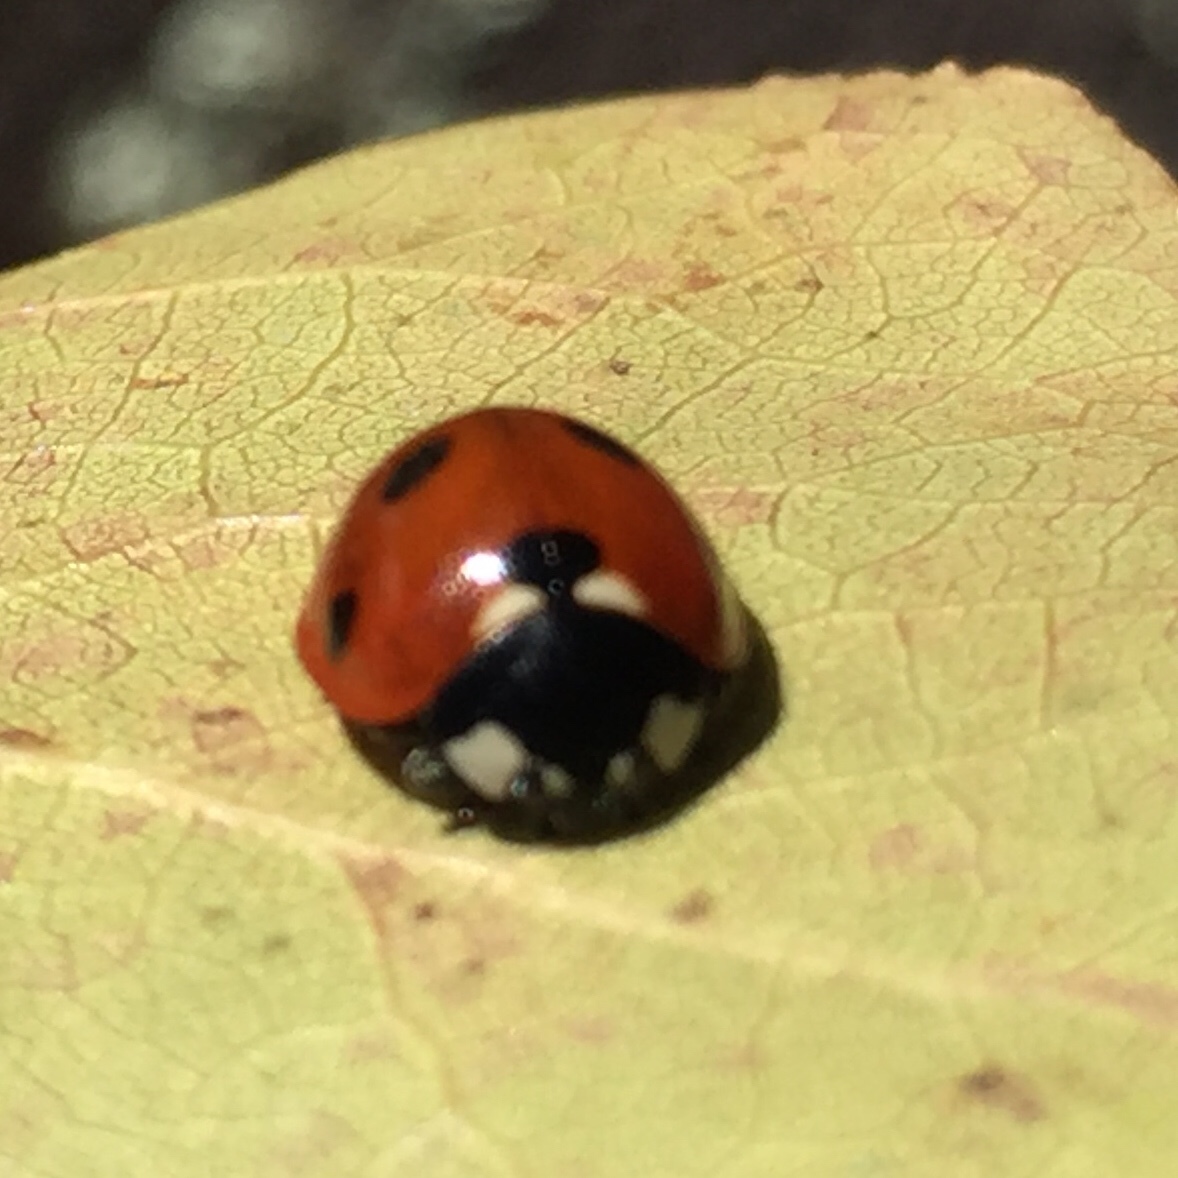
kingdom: Animalia
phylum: Arthropoda
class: Insecta
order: Coleoptera
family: Coccinellidae
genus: Coccinella
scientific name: Coccinella septempunctata
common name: Sevenspotted lady beetle
